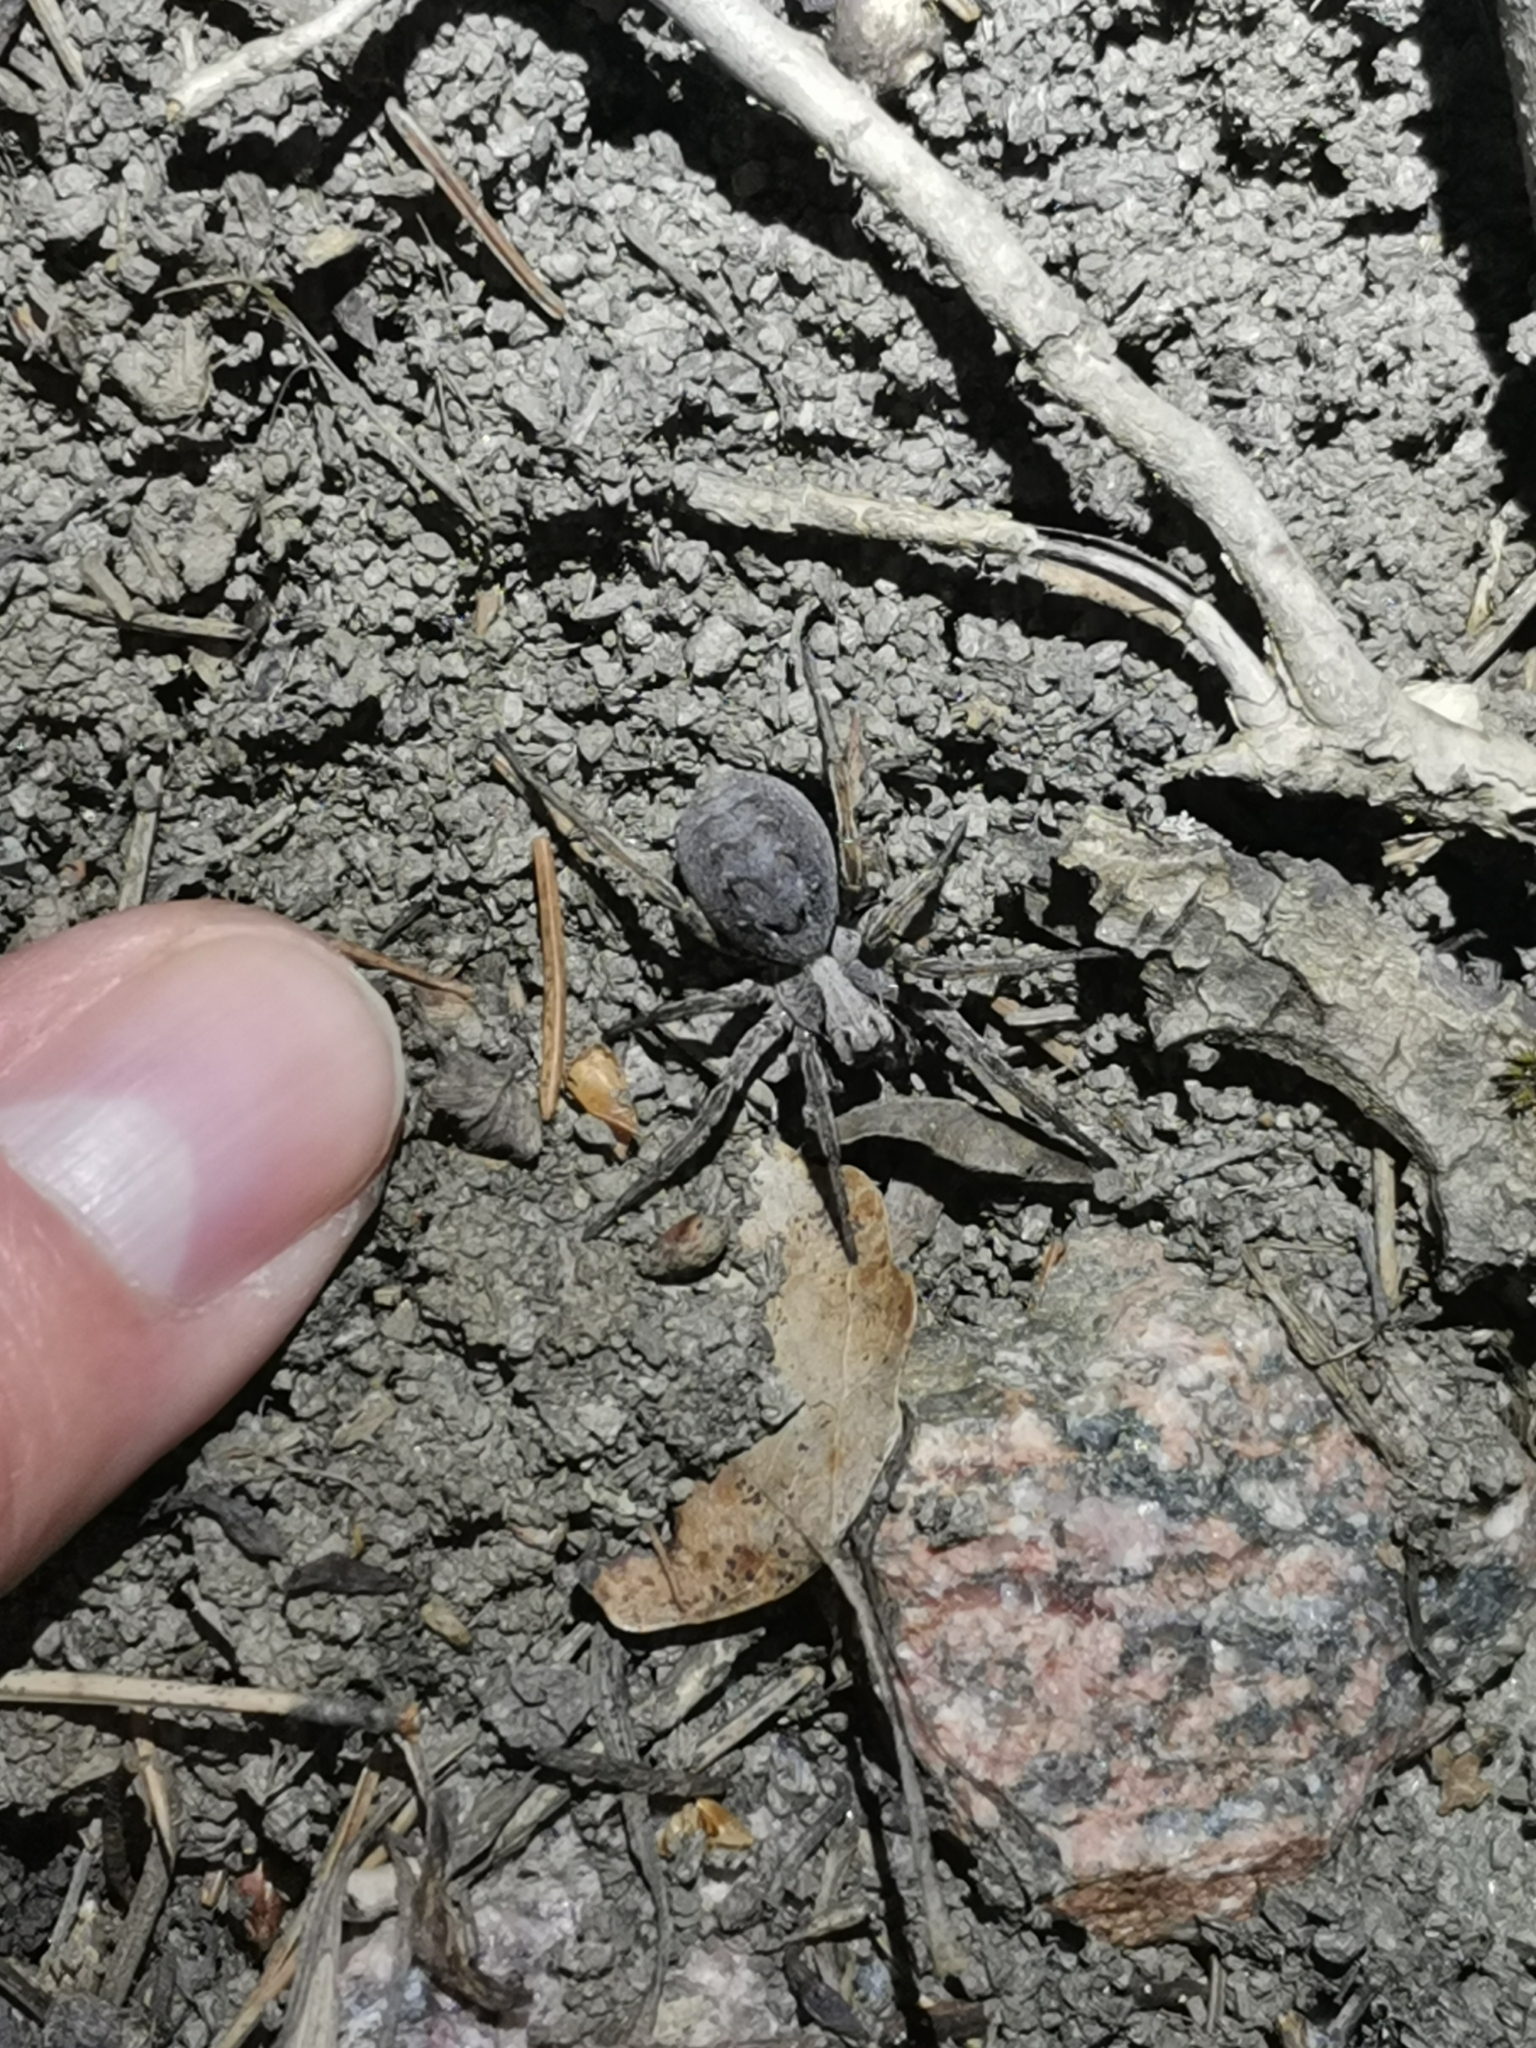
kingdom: Animalia
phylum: Arthropoda
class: Arachnida
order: Araneae
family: Lycosidae
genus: Alopecosa
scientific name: Alopecosa inquilina
